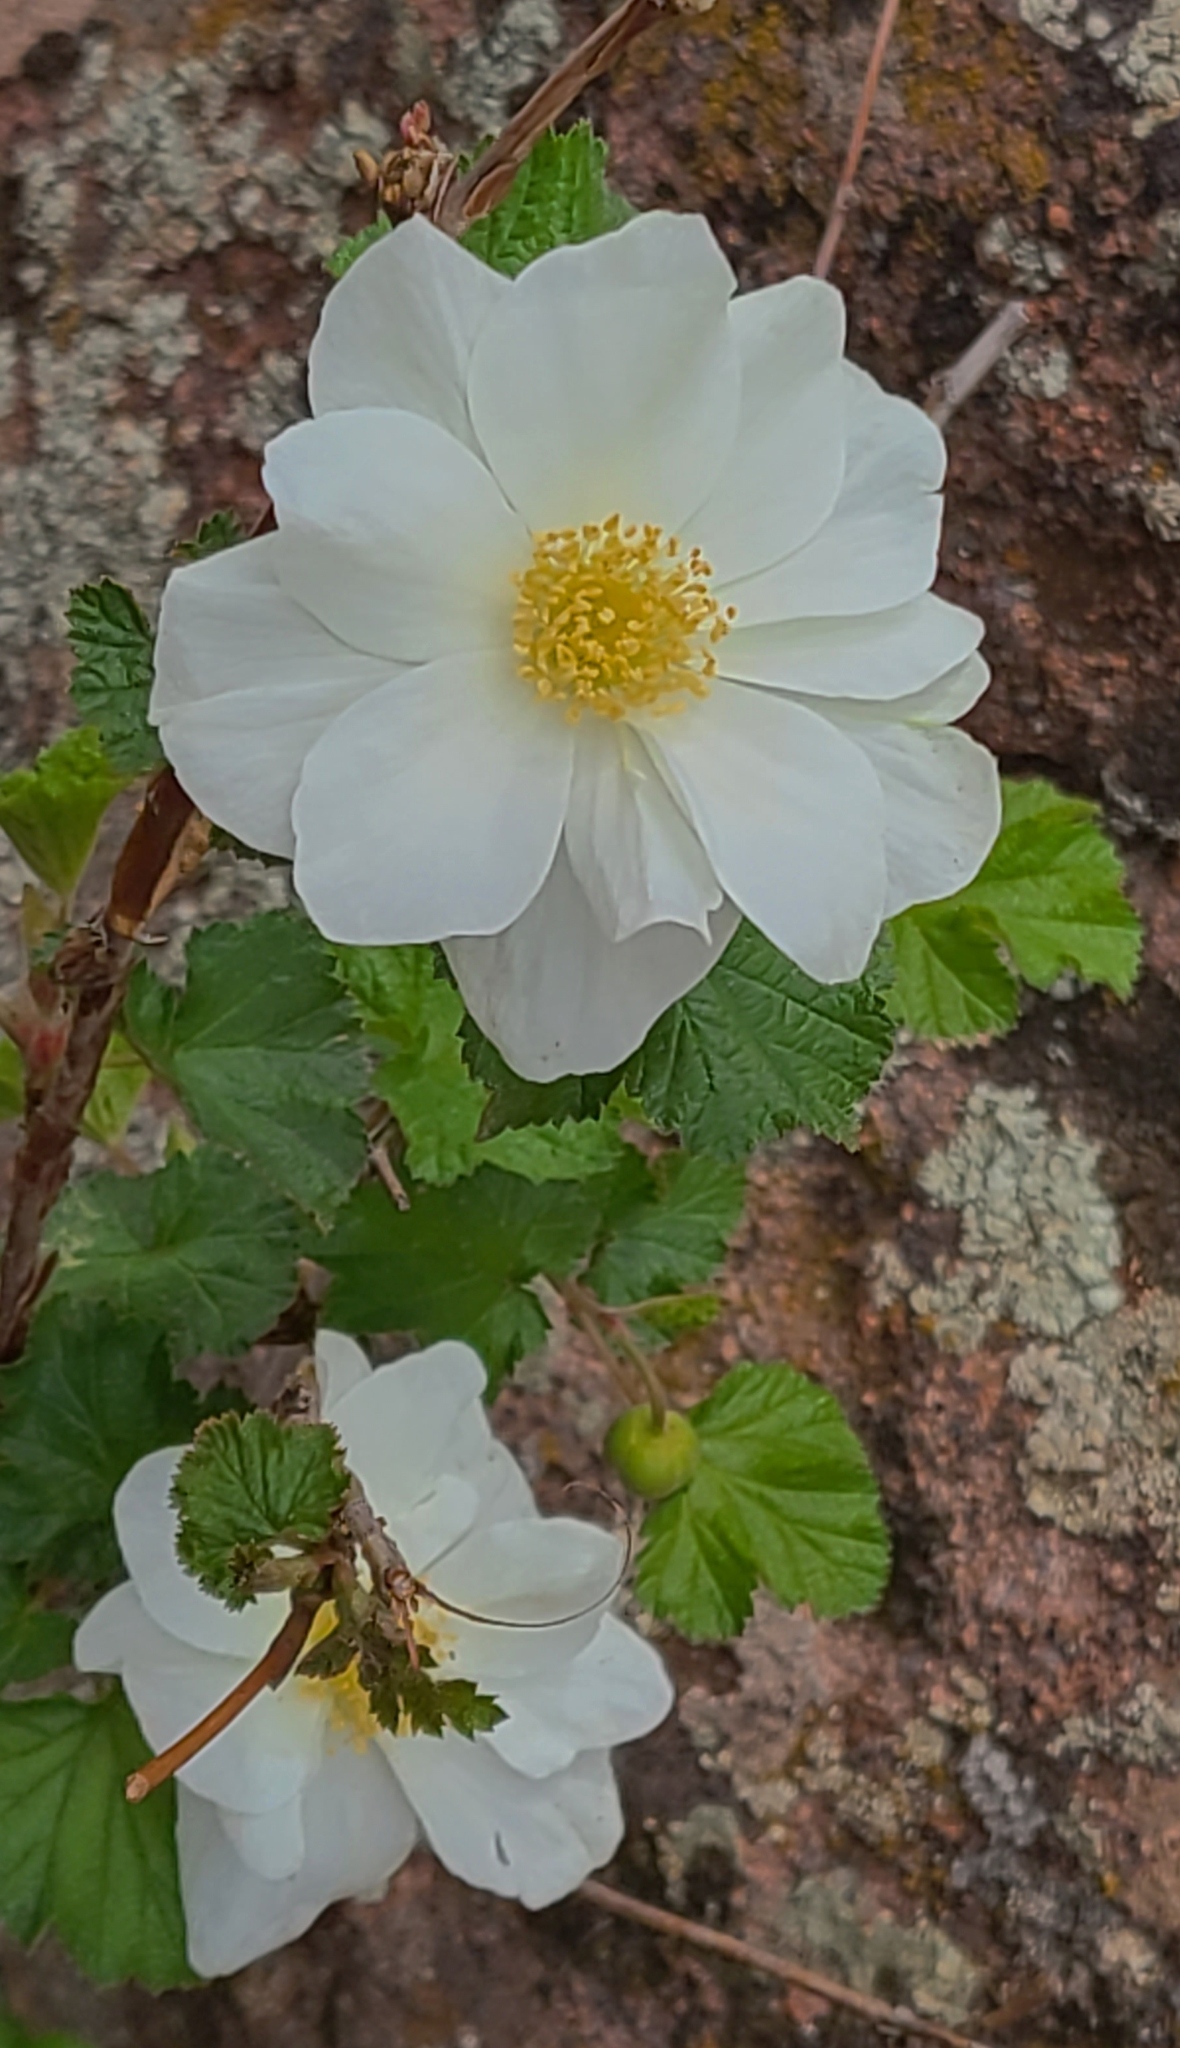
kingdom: Plantae
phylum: Tracheophyta
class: Magnoliopsida
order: Rosales
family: Rosaceae
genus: Rubus
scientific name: Rubus deliciosus
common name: Rocky mountain raspberry
